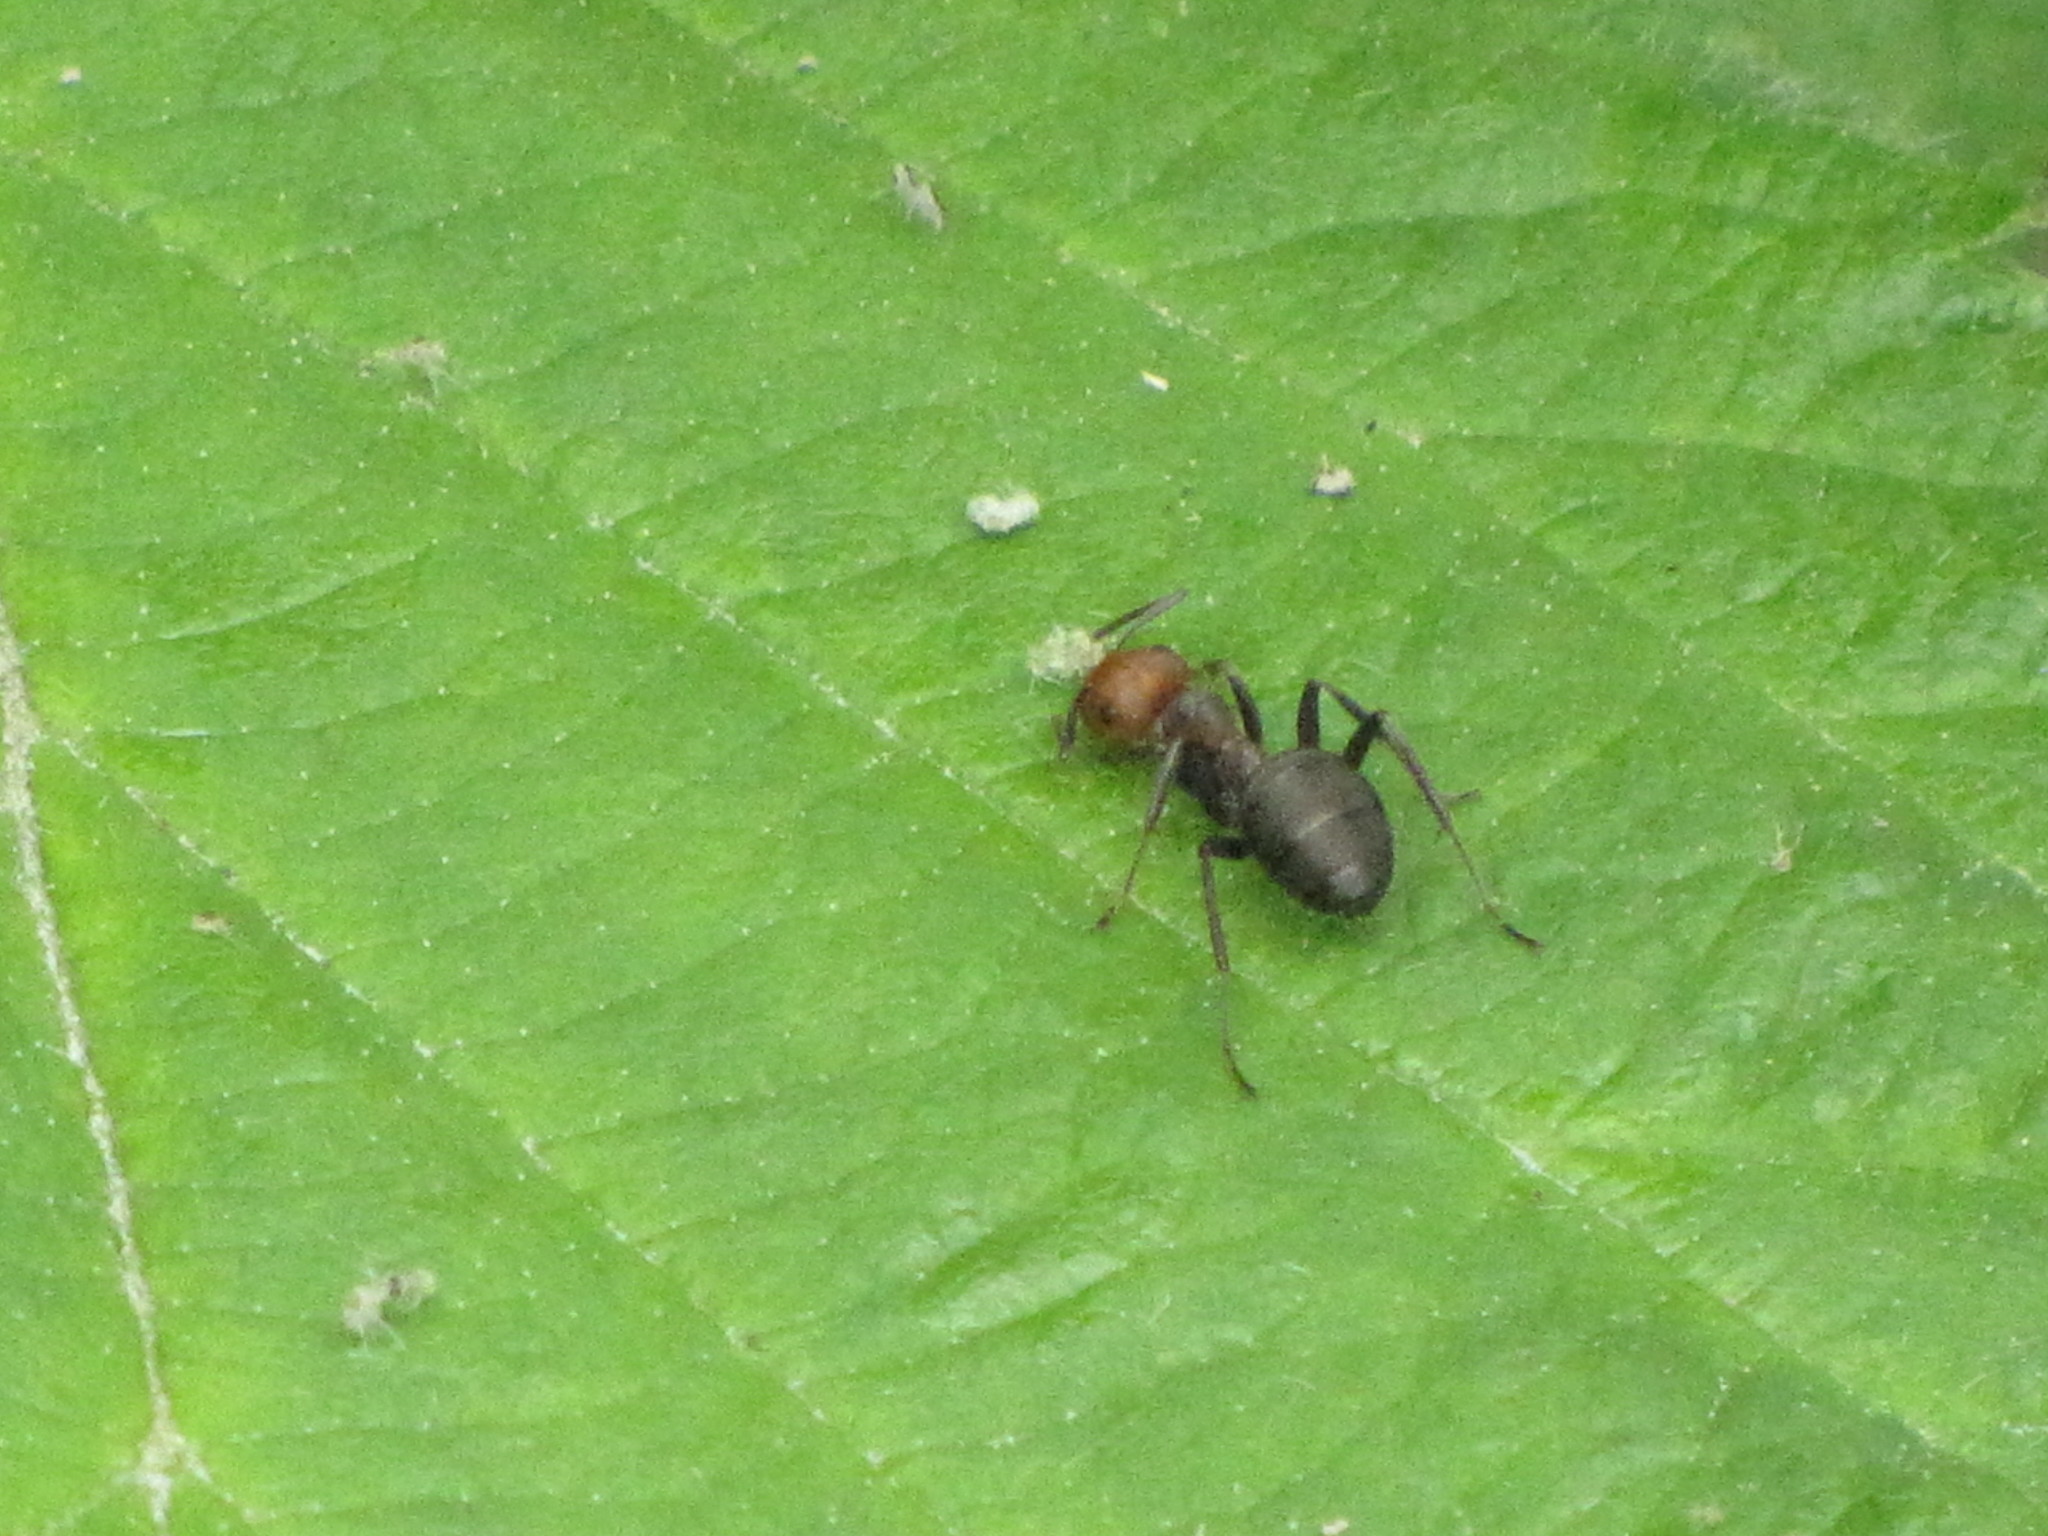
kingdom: Animalia
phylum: Arthropoda
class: Insecta
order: Hymenoptera
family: Formicidae
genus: Formica
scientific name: Formica obscuripes
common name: Western thatching ant
